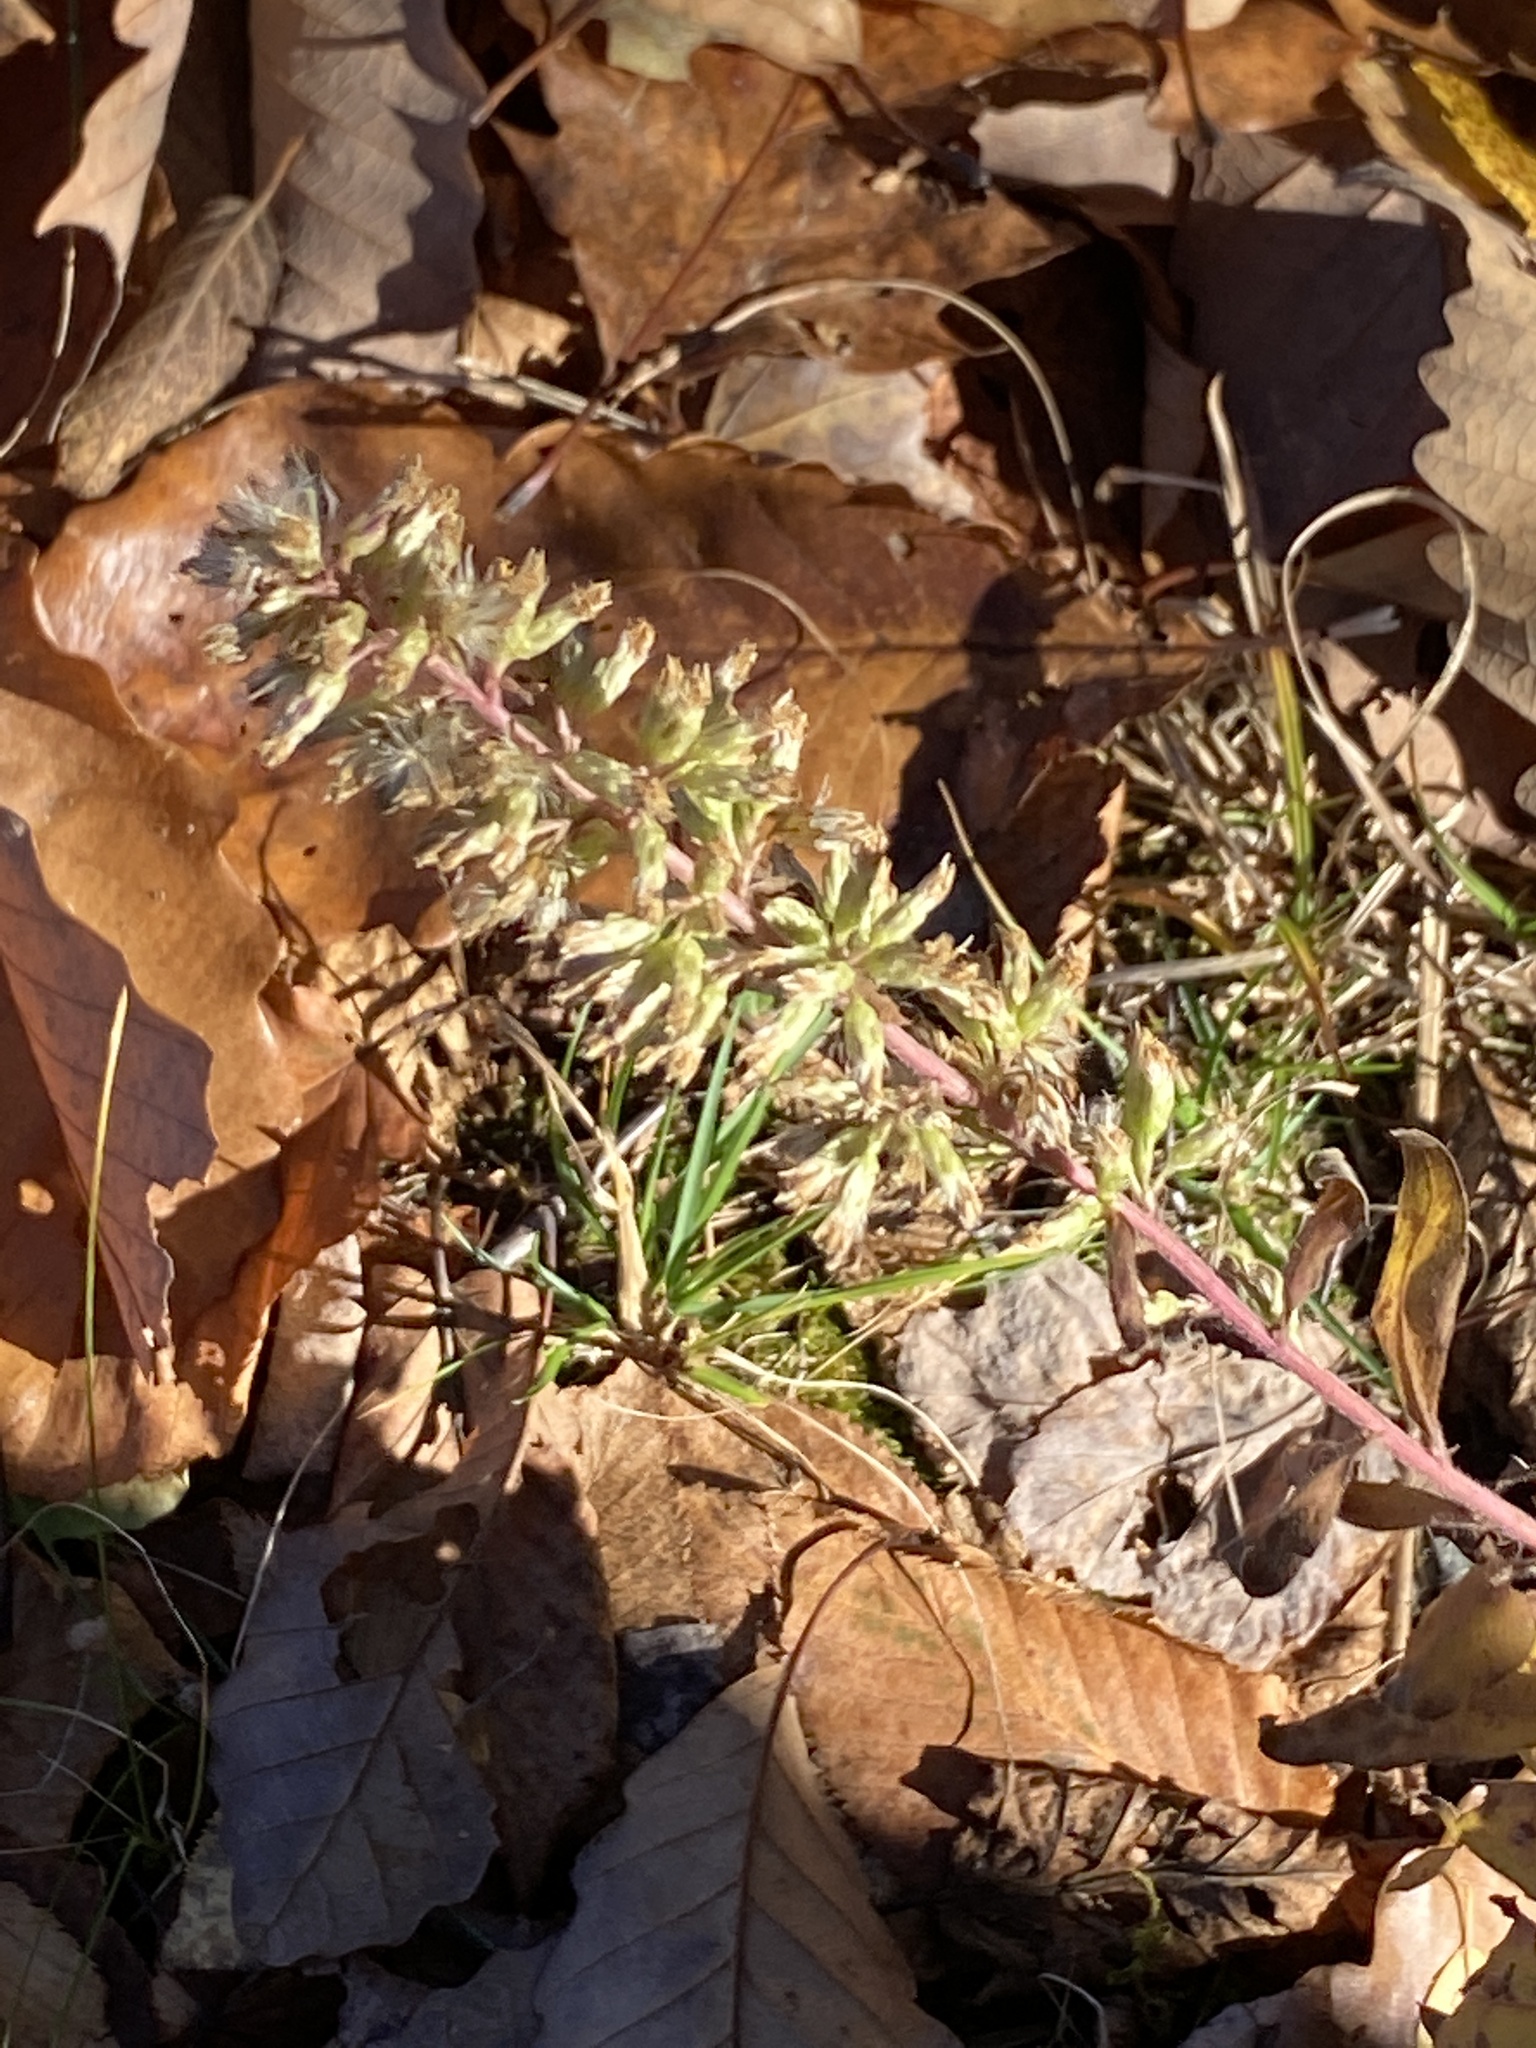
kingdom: Plantae
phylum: Tracheophyta
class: Magnoliopsida
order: Asterales
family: Asteraceae
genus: Solidago
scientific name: Solidago bicolor
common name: Silverrod
